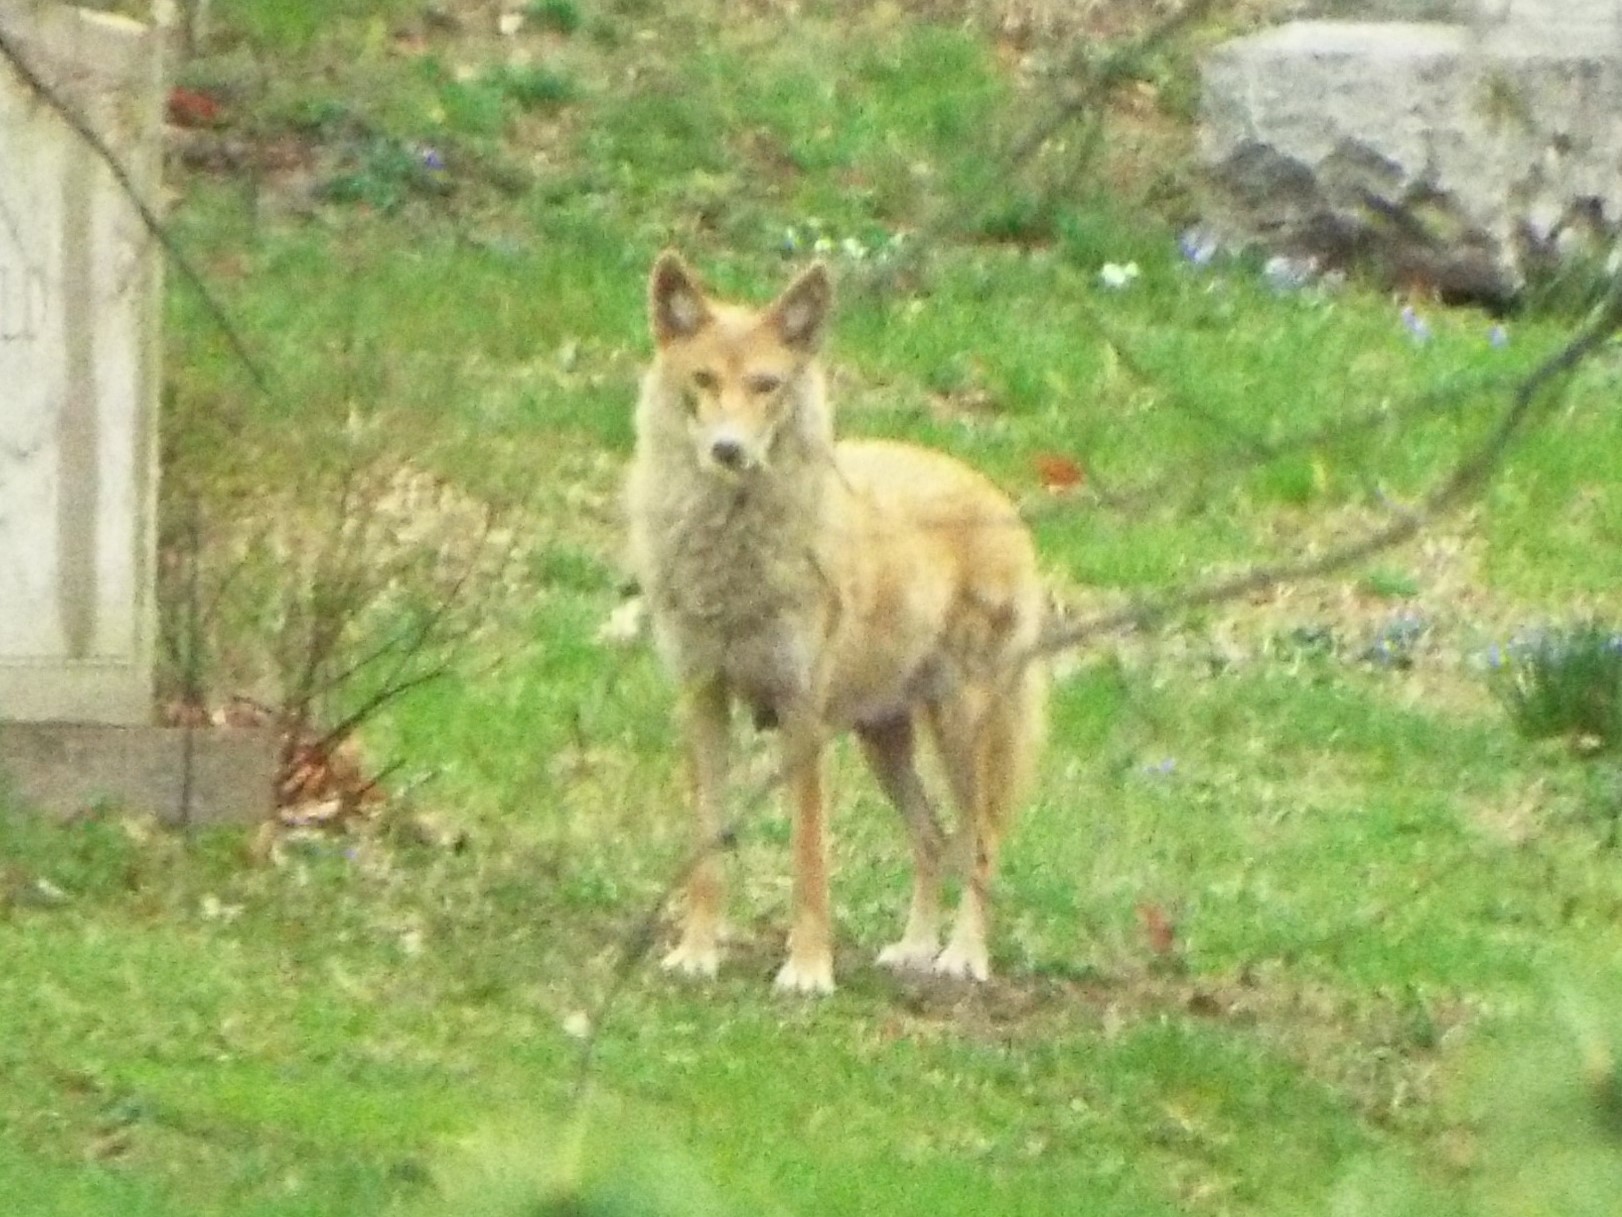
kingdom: Animalia
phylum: Chordata
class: Mammalia
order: Carnivora
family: Canidae
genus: Canis
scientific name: Canis latrans
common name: Coyote
